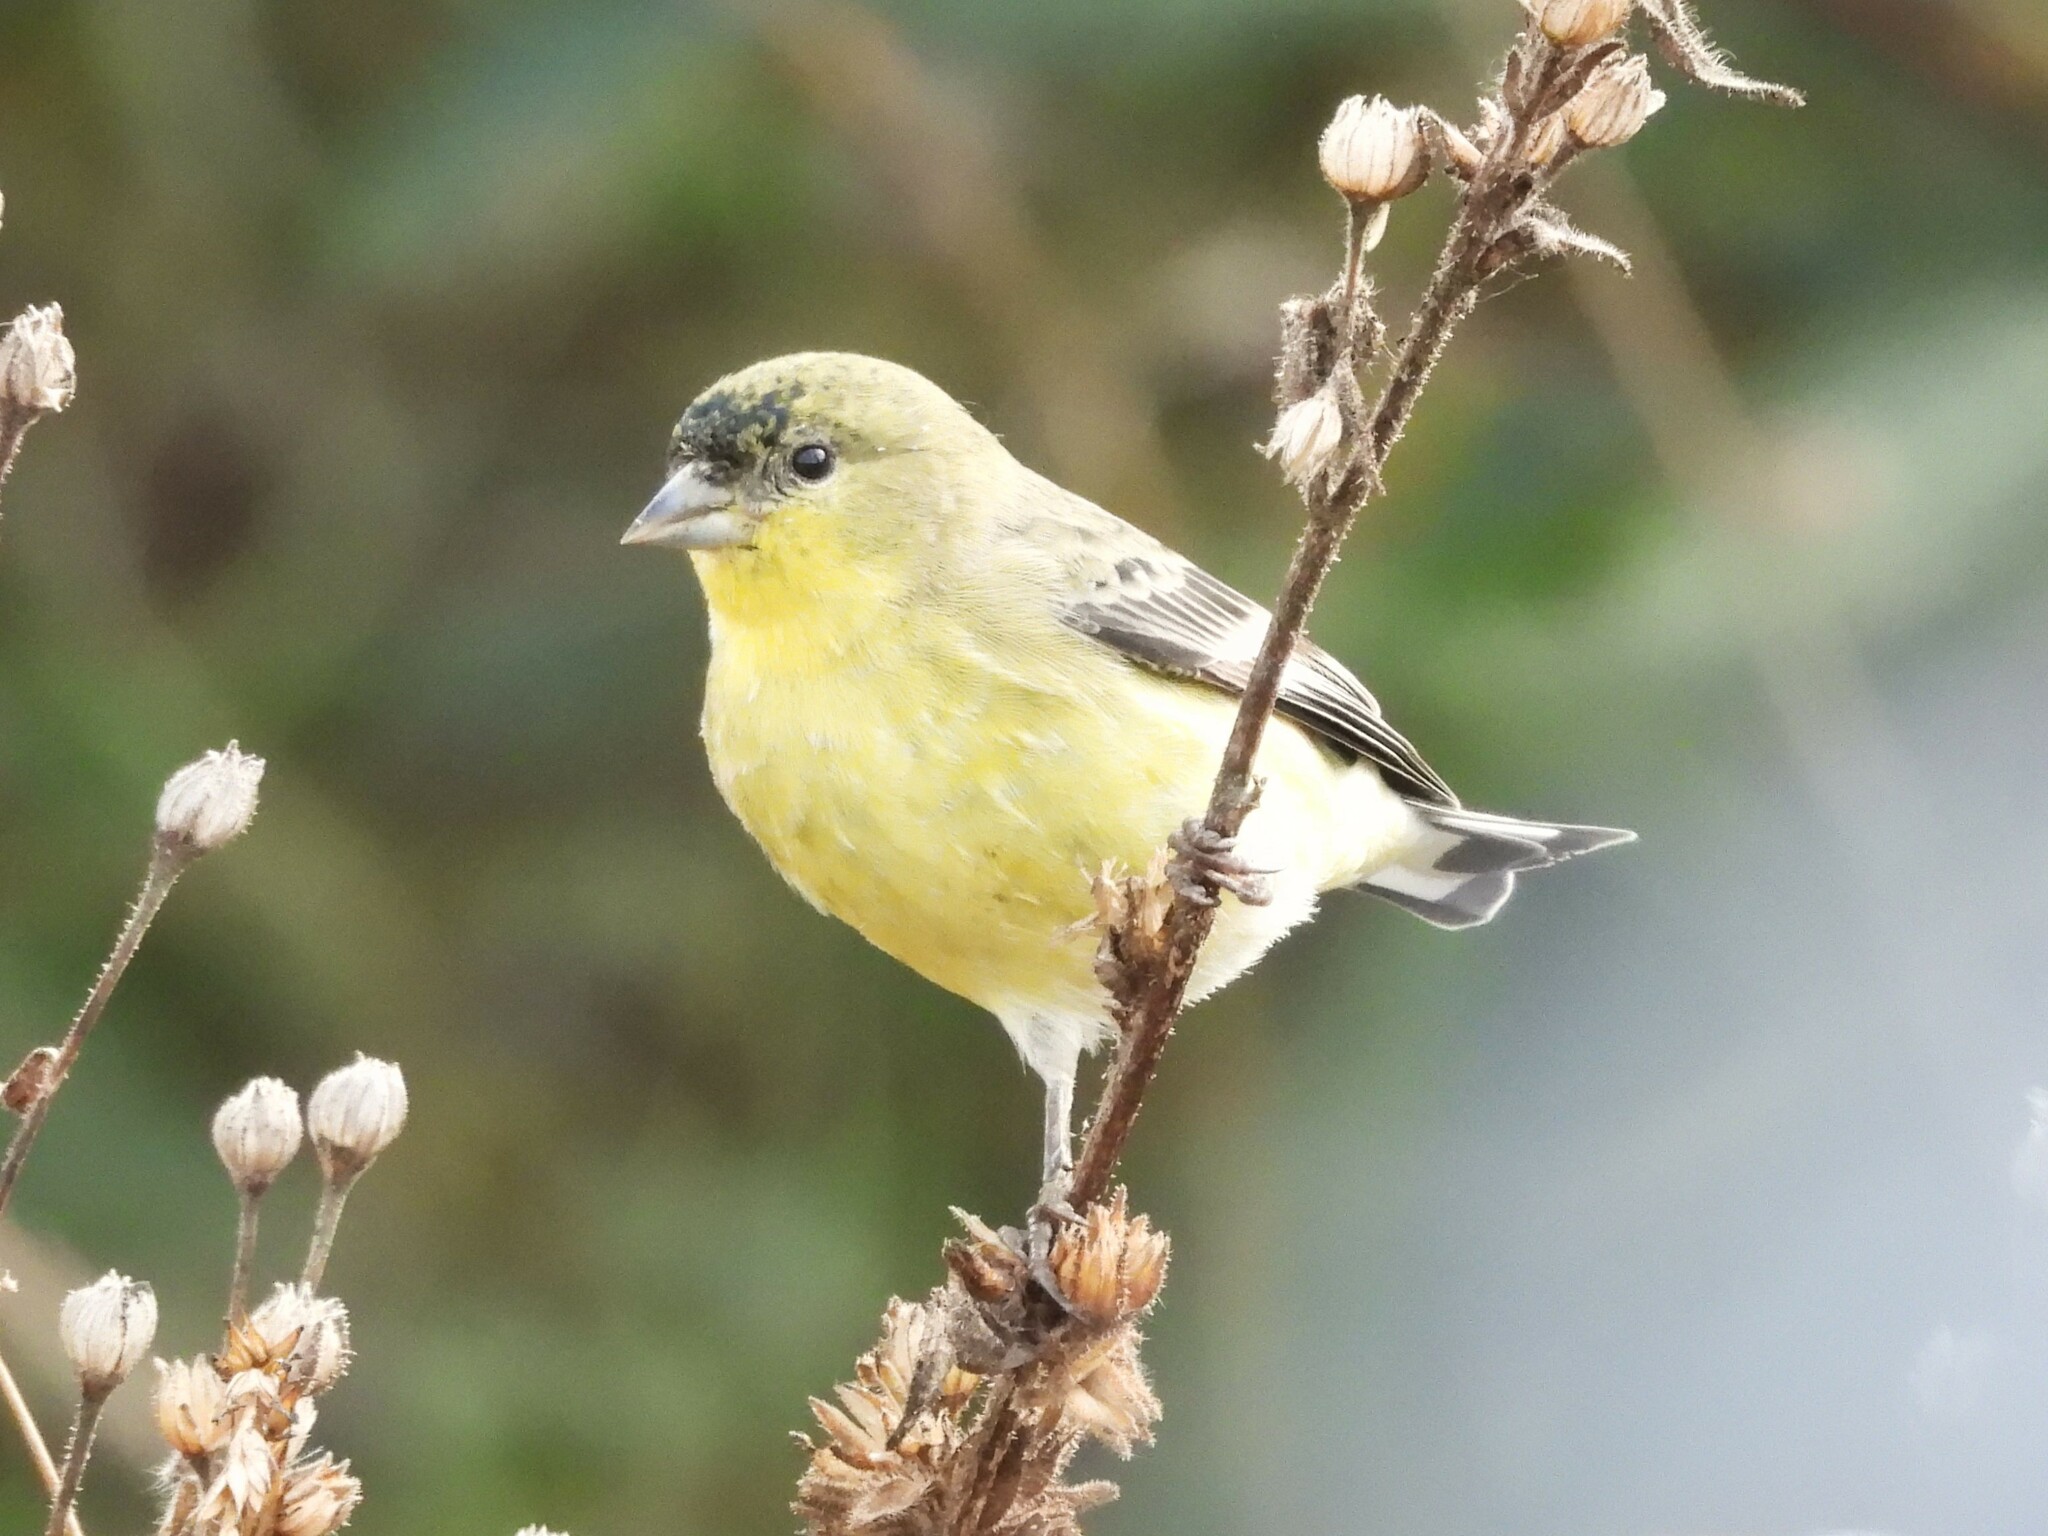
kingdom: Animalia
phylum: Chordata
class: Aves
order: Passeriformes
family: Fringillidae
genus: Spinus
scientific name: Spinus psaltria
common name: Lesser goldfinch
